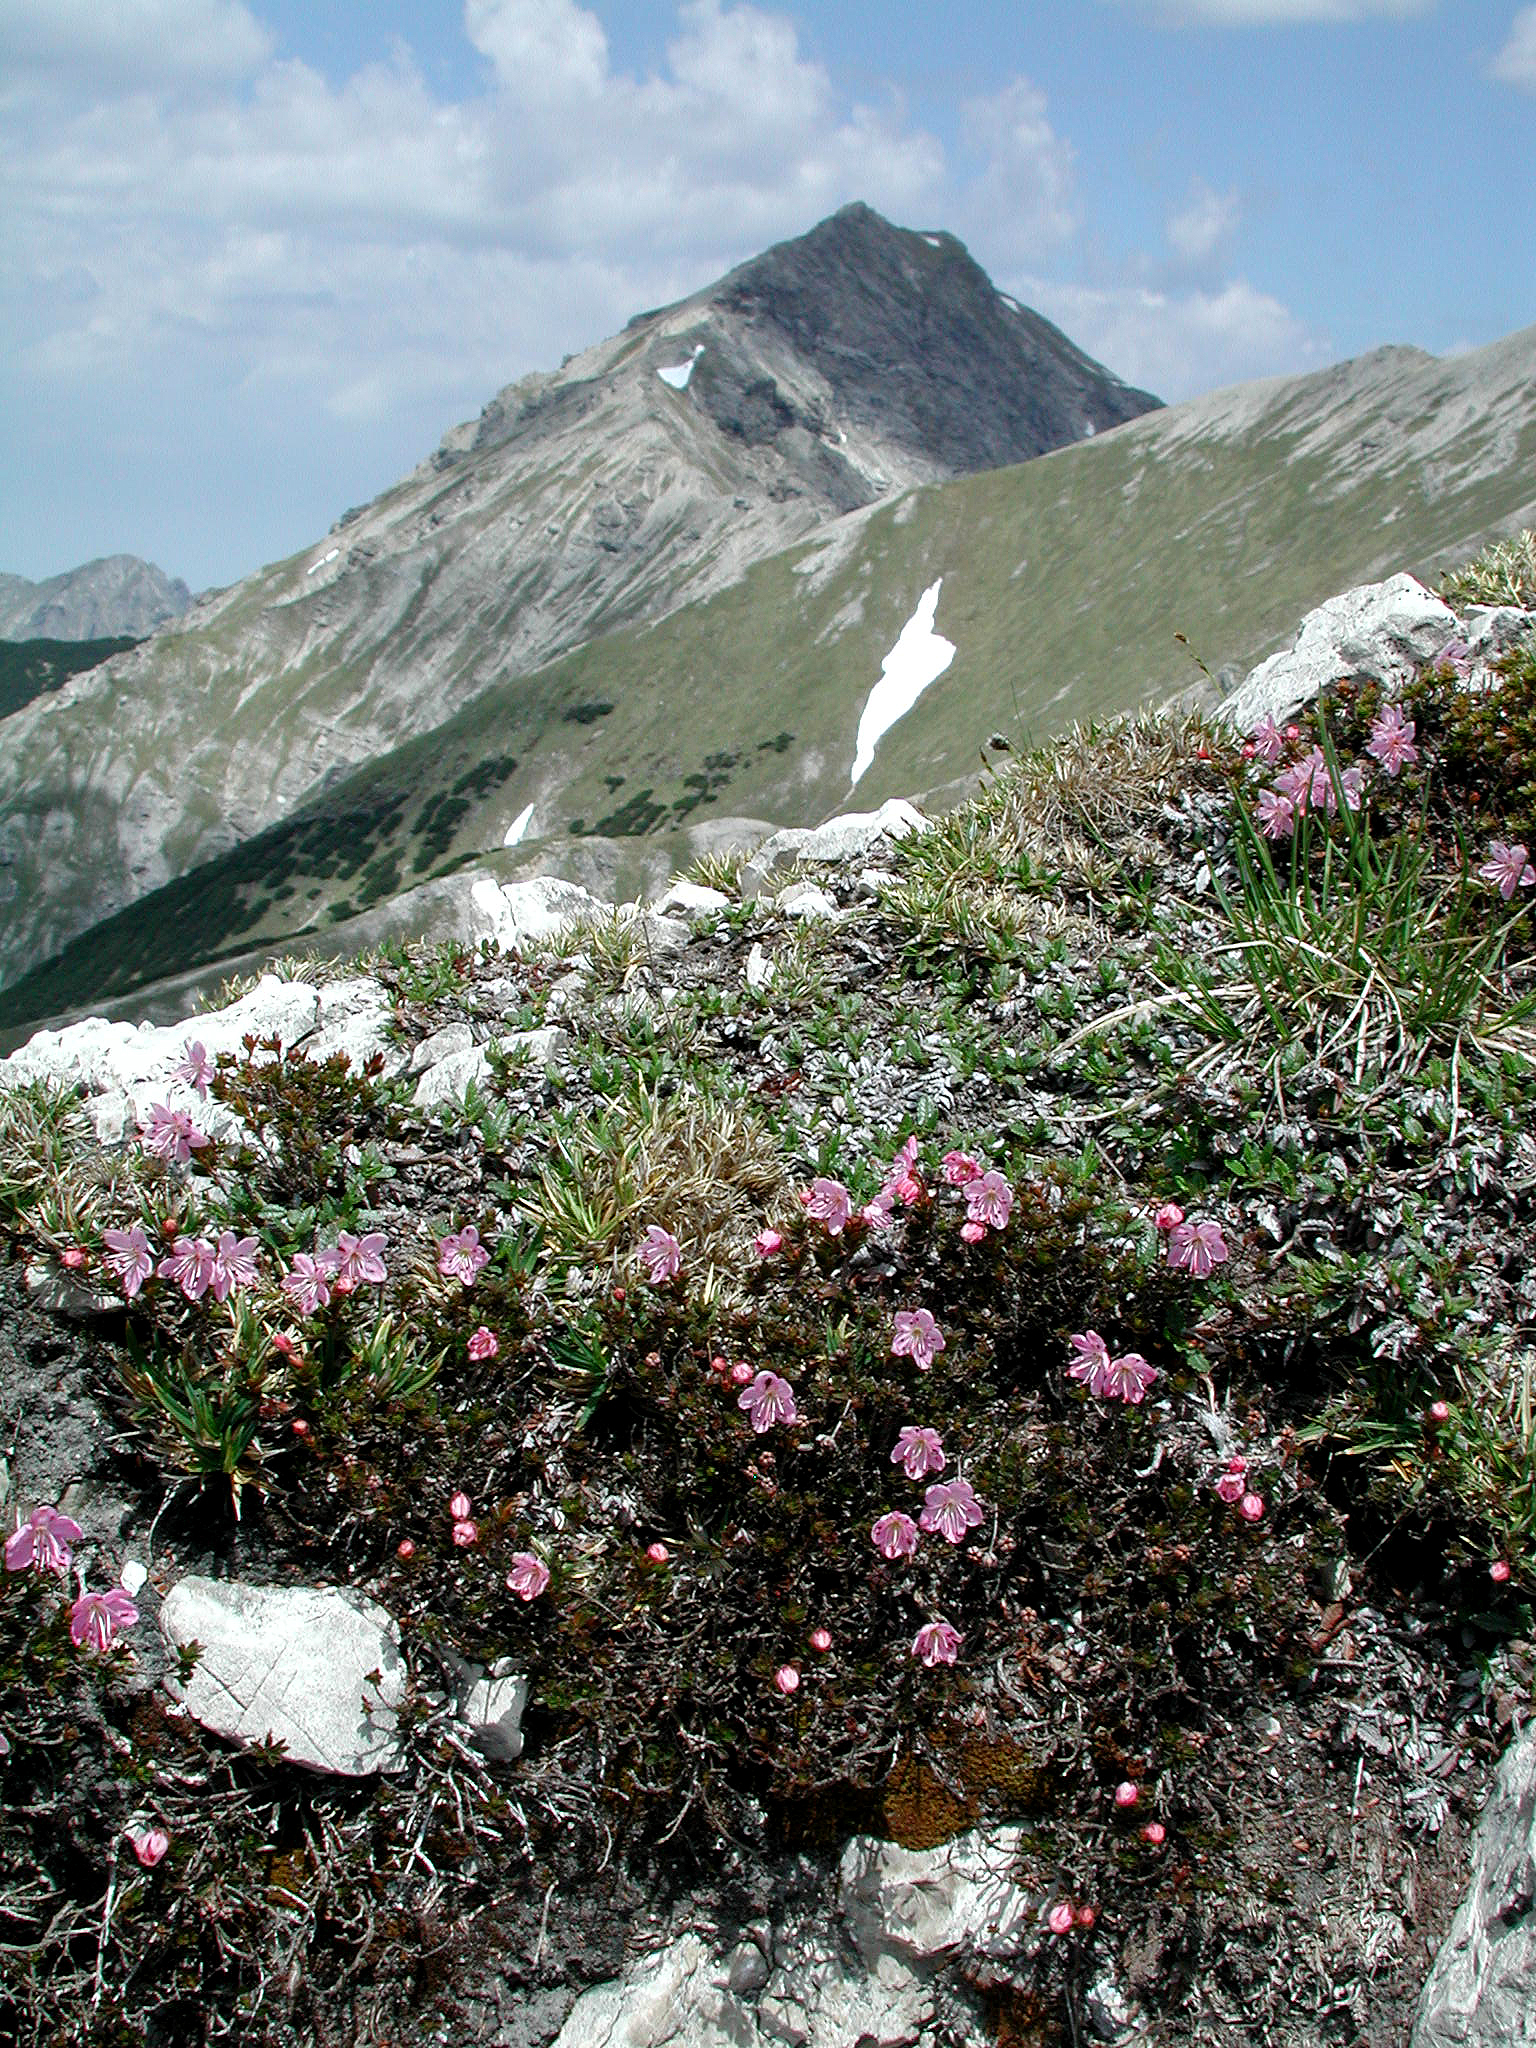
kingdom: Plantae
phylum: Tracheophyta
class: Magnoliopsida
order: Ericales
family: Ericaceae
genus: Rhodothamnus
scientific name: Rhodothamnus chamaecistus
